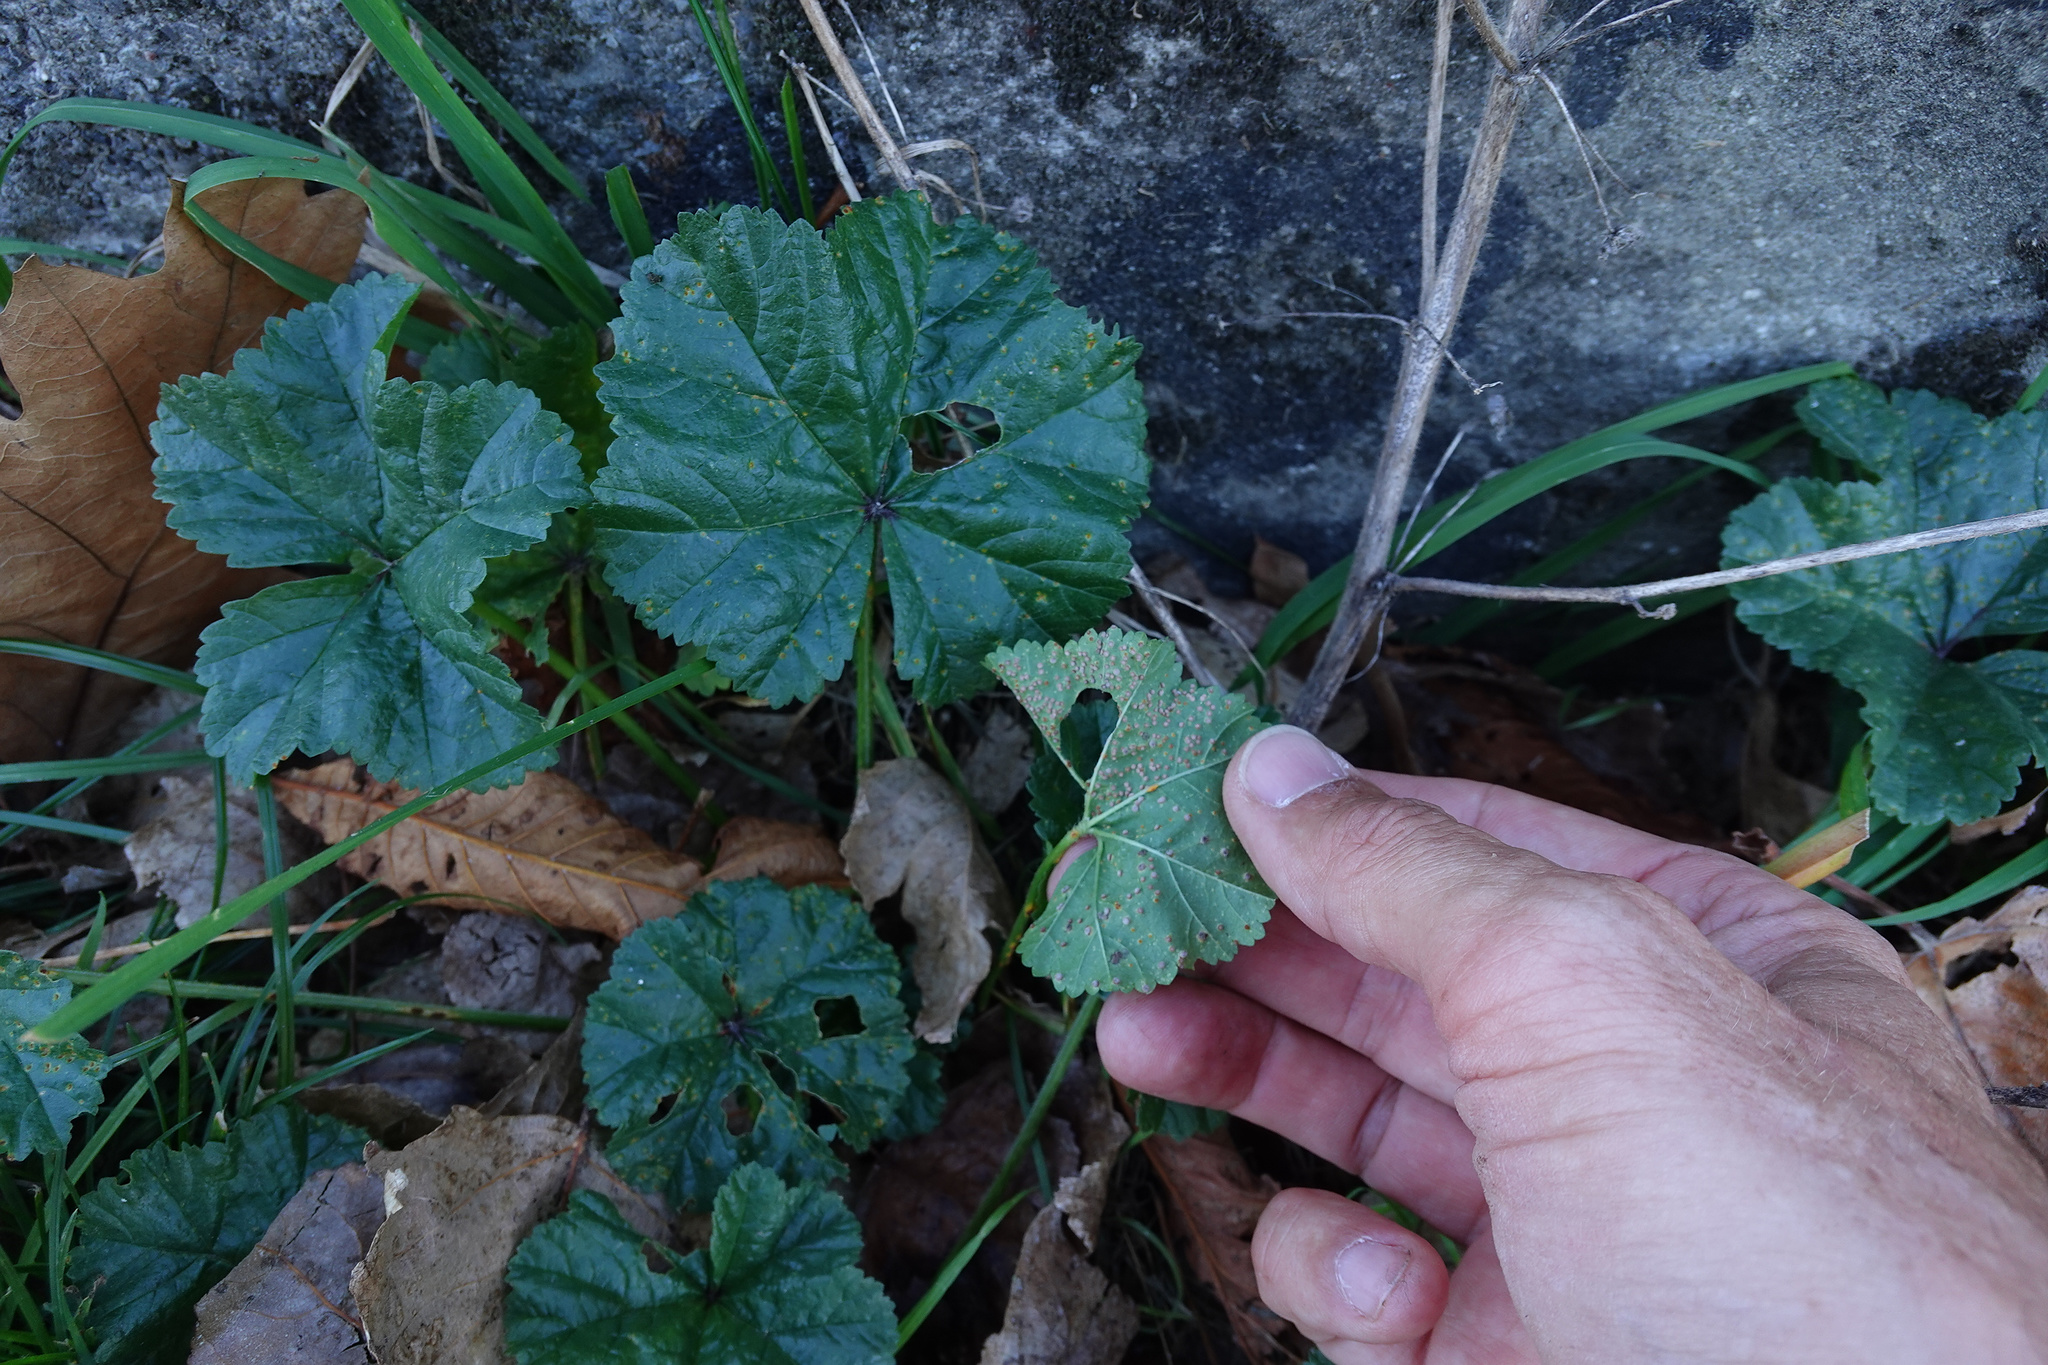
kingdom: Fungi
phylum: Basidiomycota
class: Pucciniomycetes
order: Pucciniales
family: Pucciniaceae
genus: Puccinia
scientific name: Puccinia malvacearum
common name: Hollyhock rust
